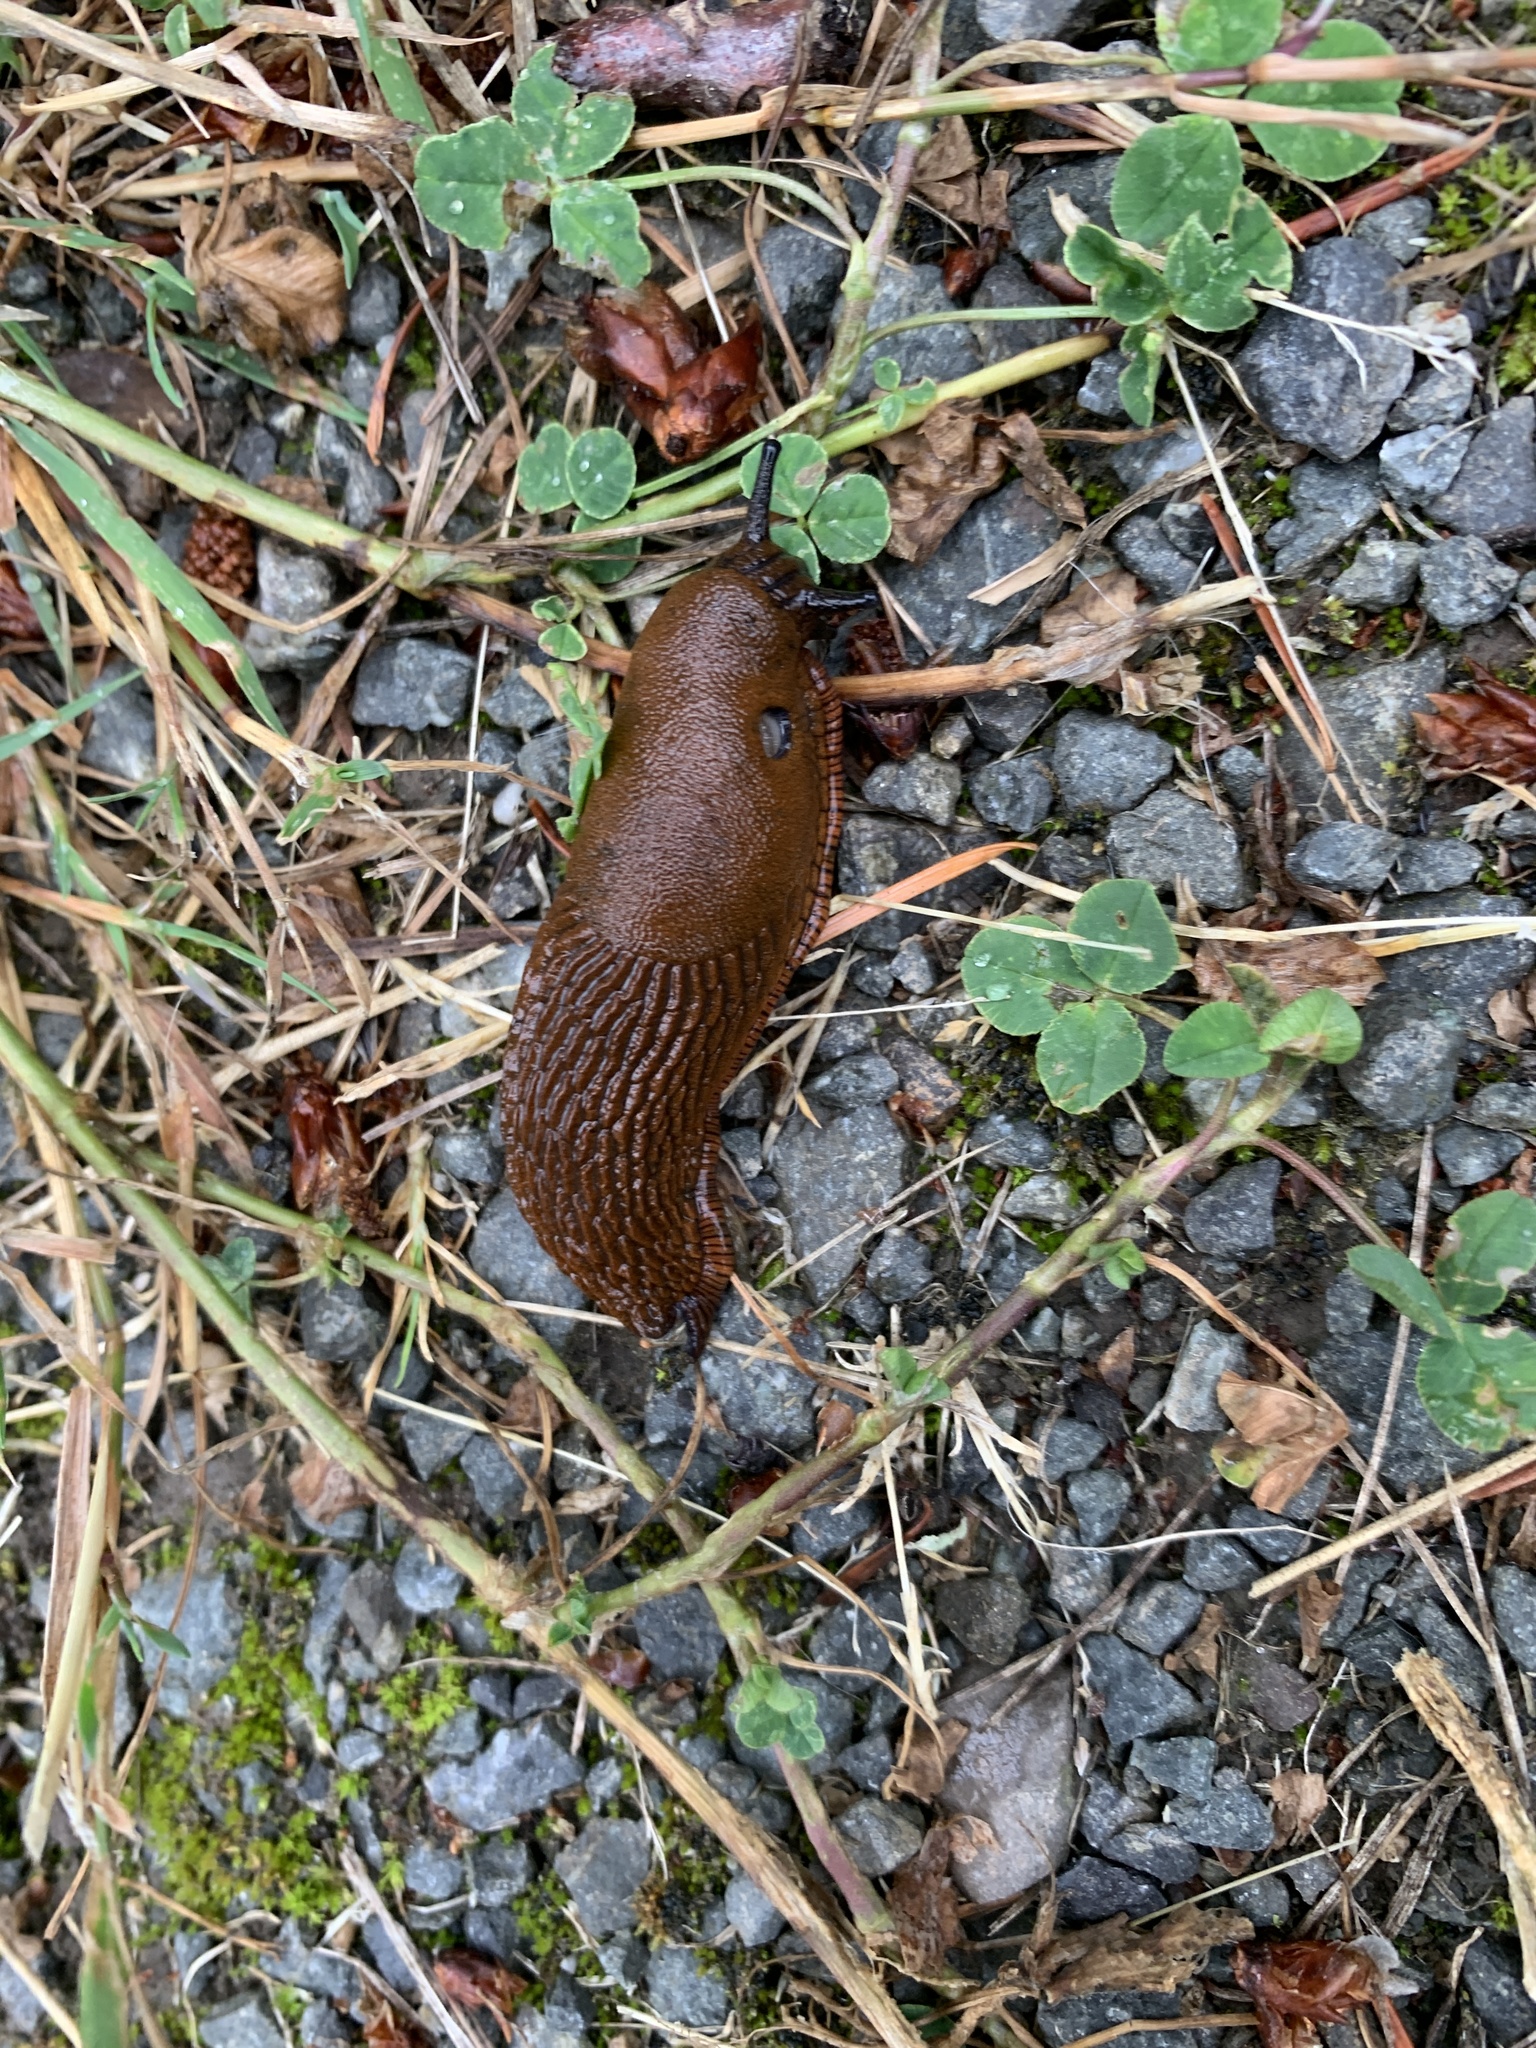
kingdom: Animalia
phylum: Mollusca
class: Gastropoda
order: Stylommatophora
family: Arionidae
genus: Arion
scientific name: Arion rufus
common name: Chocolate arion
